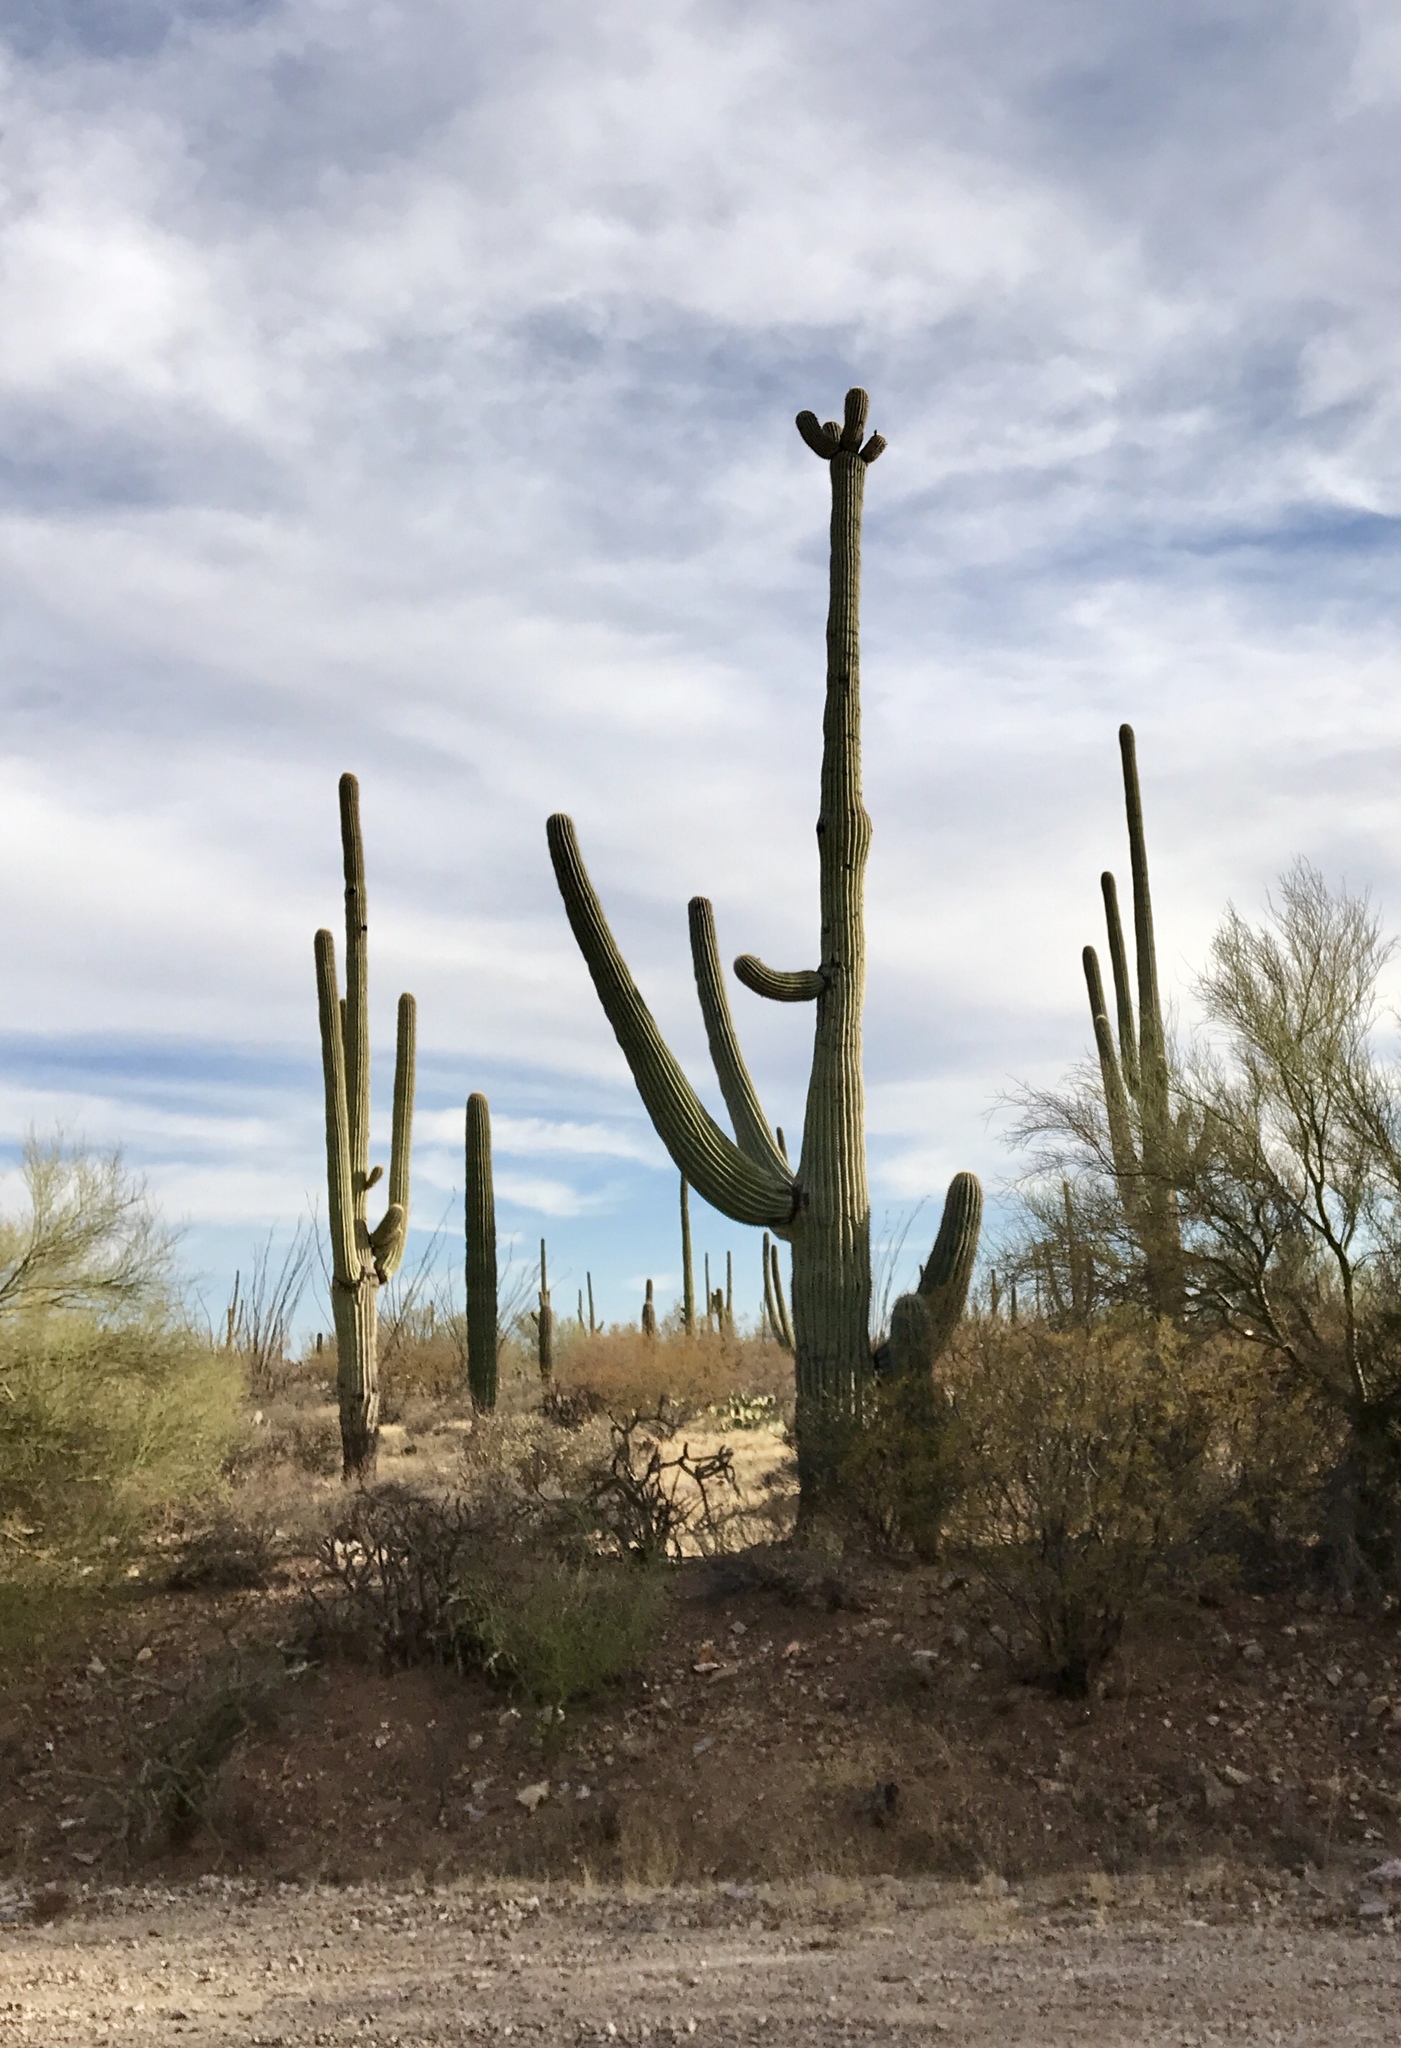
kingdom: Plantae
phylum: Tracheophyta
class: Magnoliopsida
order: Caryophyllales
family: Cactaceae
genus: Carnegiea
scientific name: Carnegiea gigantea
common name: Saguaro
